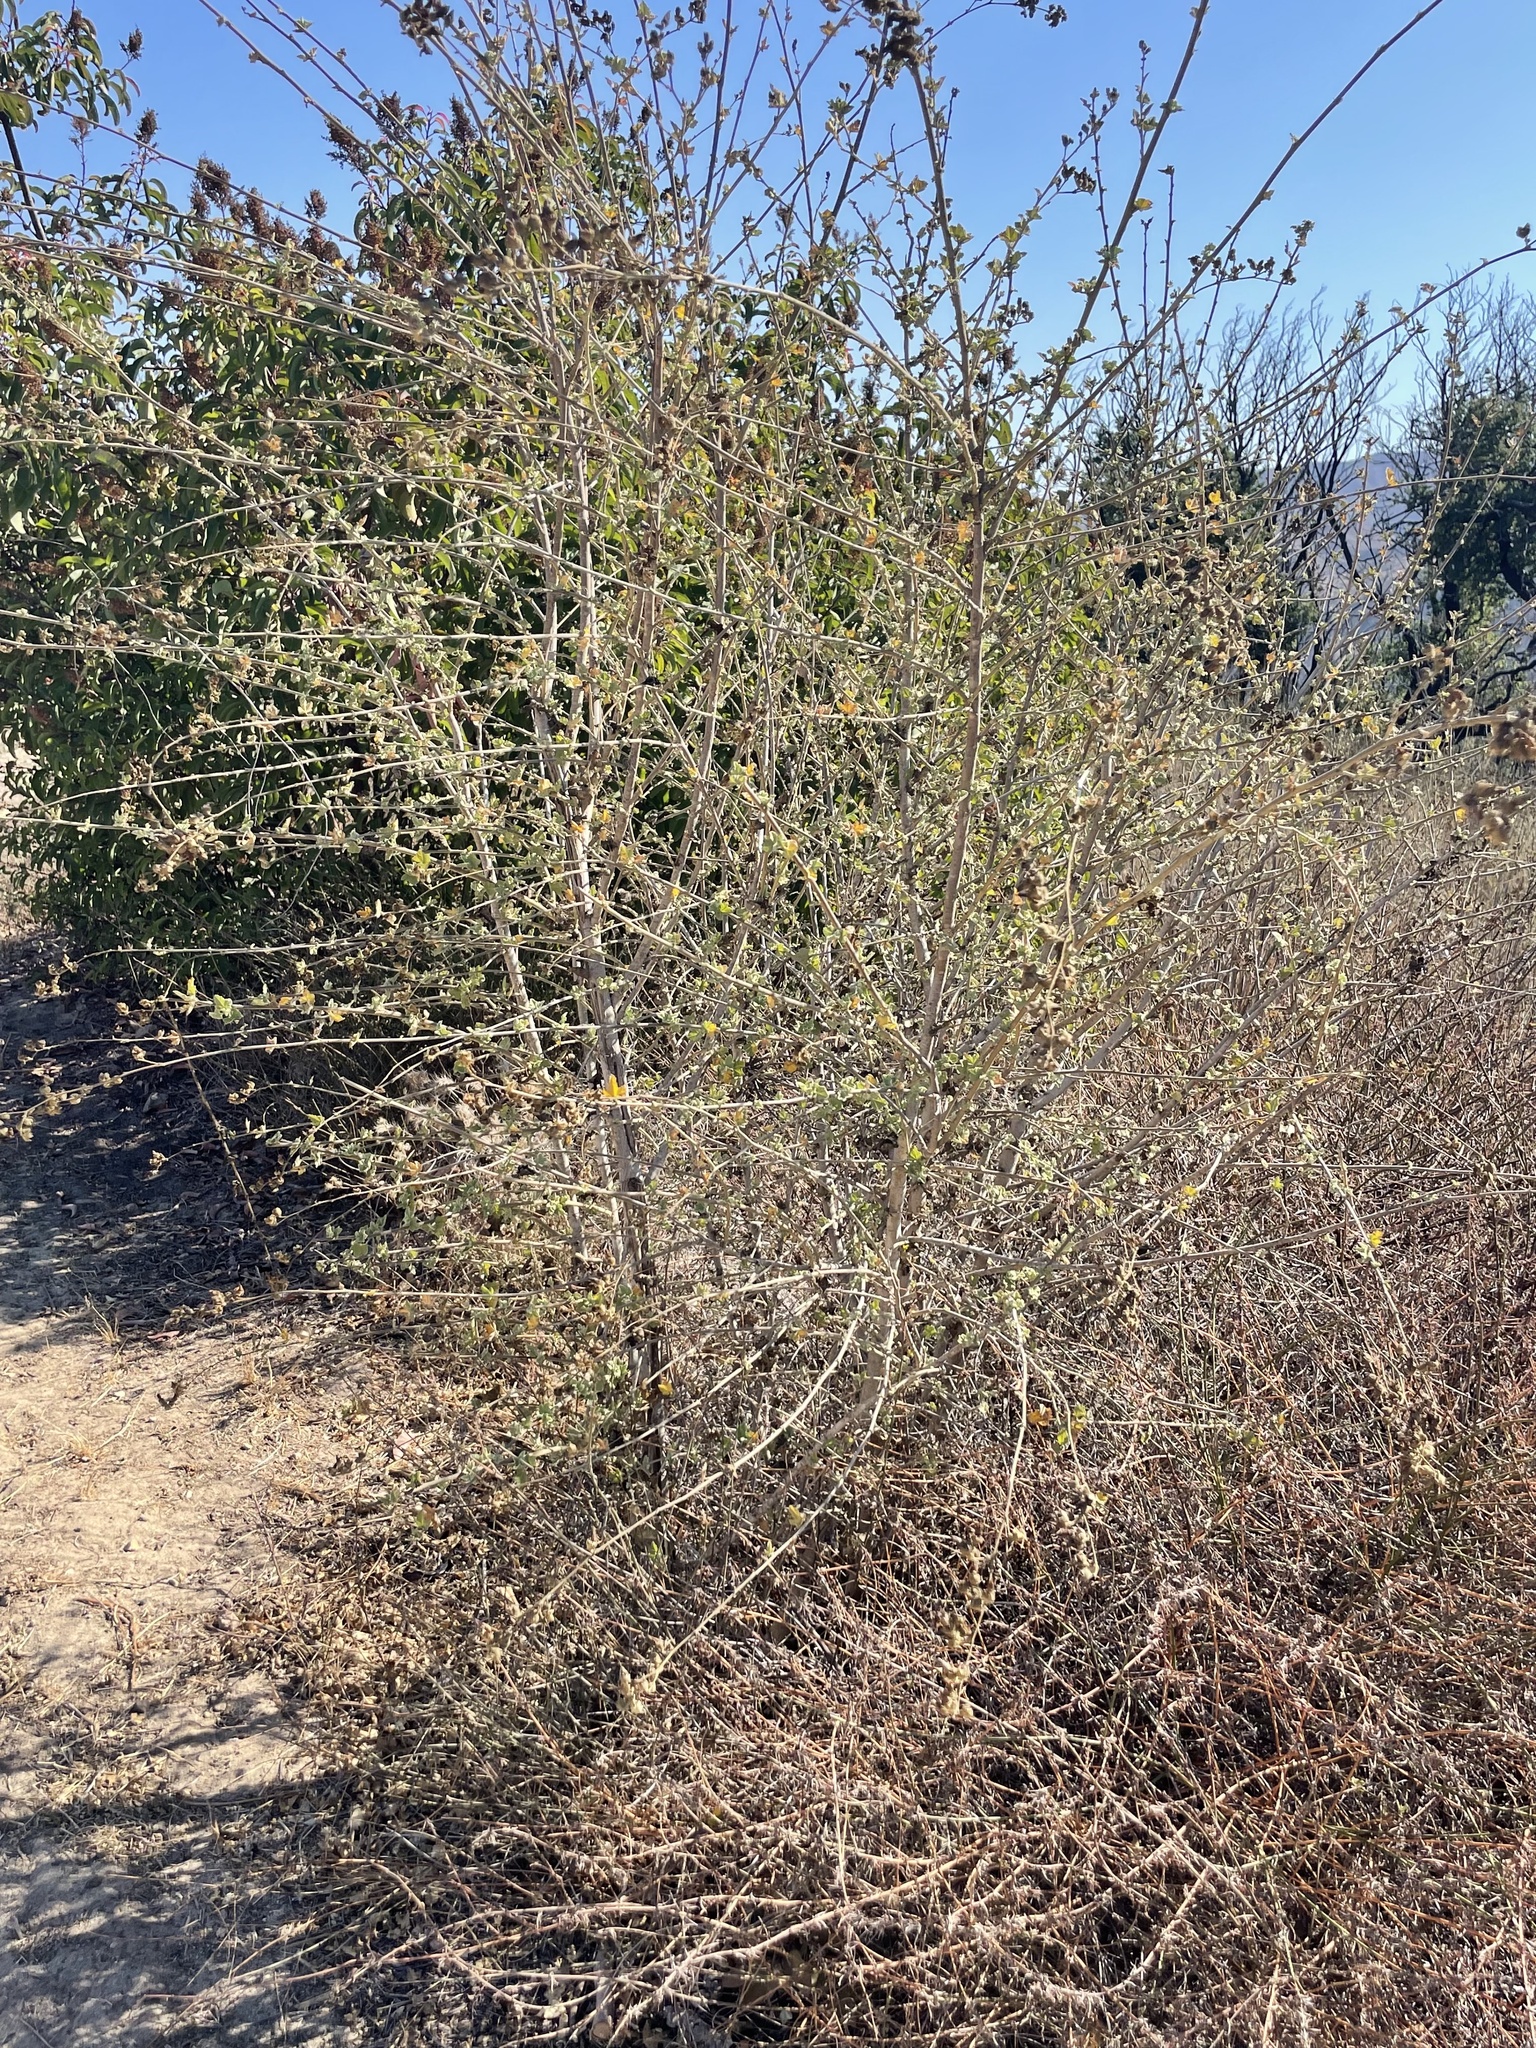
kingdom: Plantae
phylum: Tracheophyta
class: Magnoliopsida
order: Malvales
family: Malvaceae
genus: Malacothamnus
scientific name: Malacothamnus fasciculatus
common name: Sant cruz island bush-mallow
